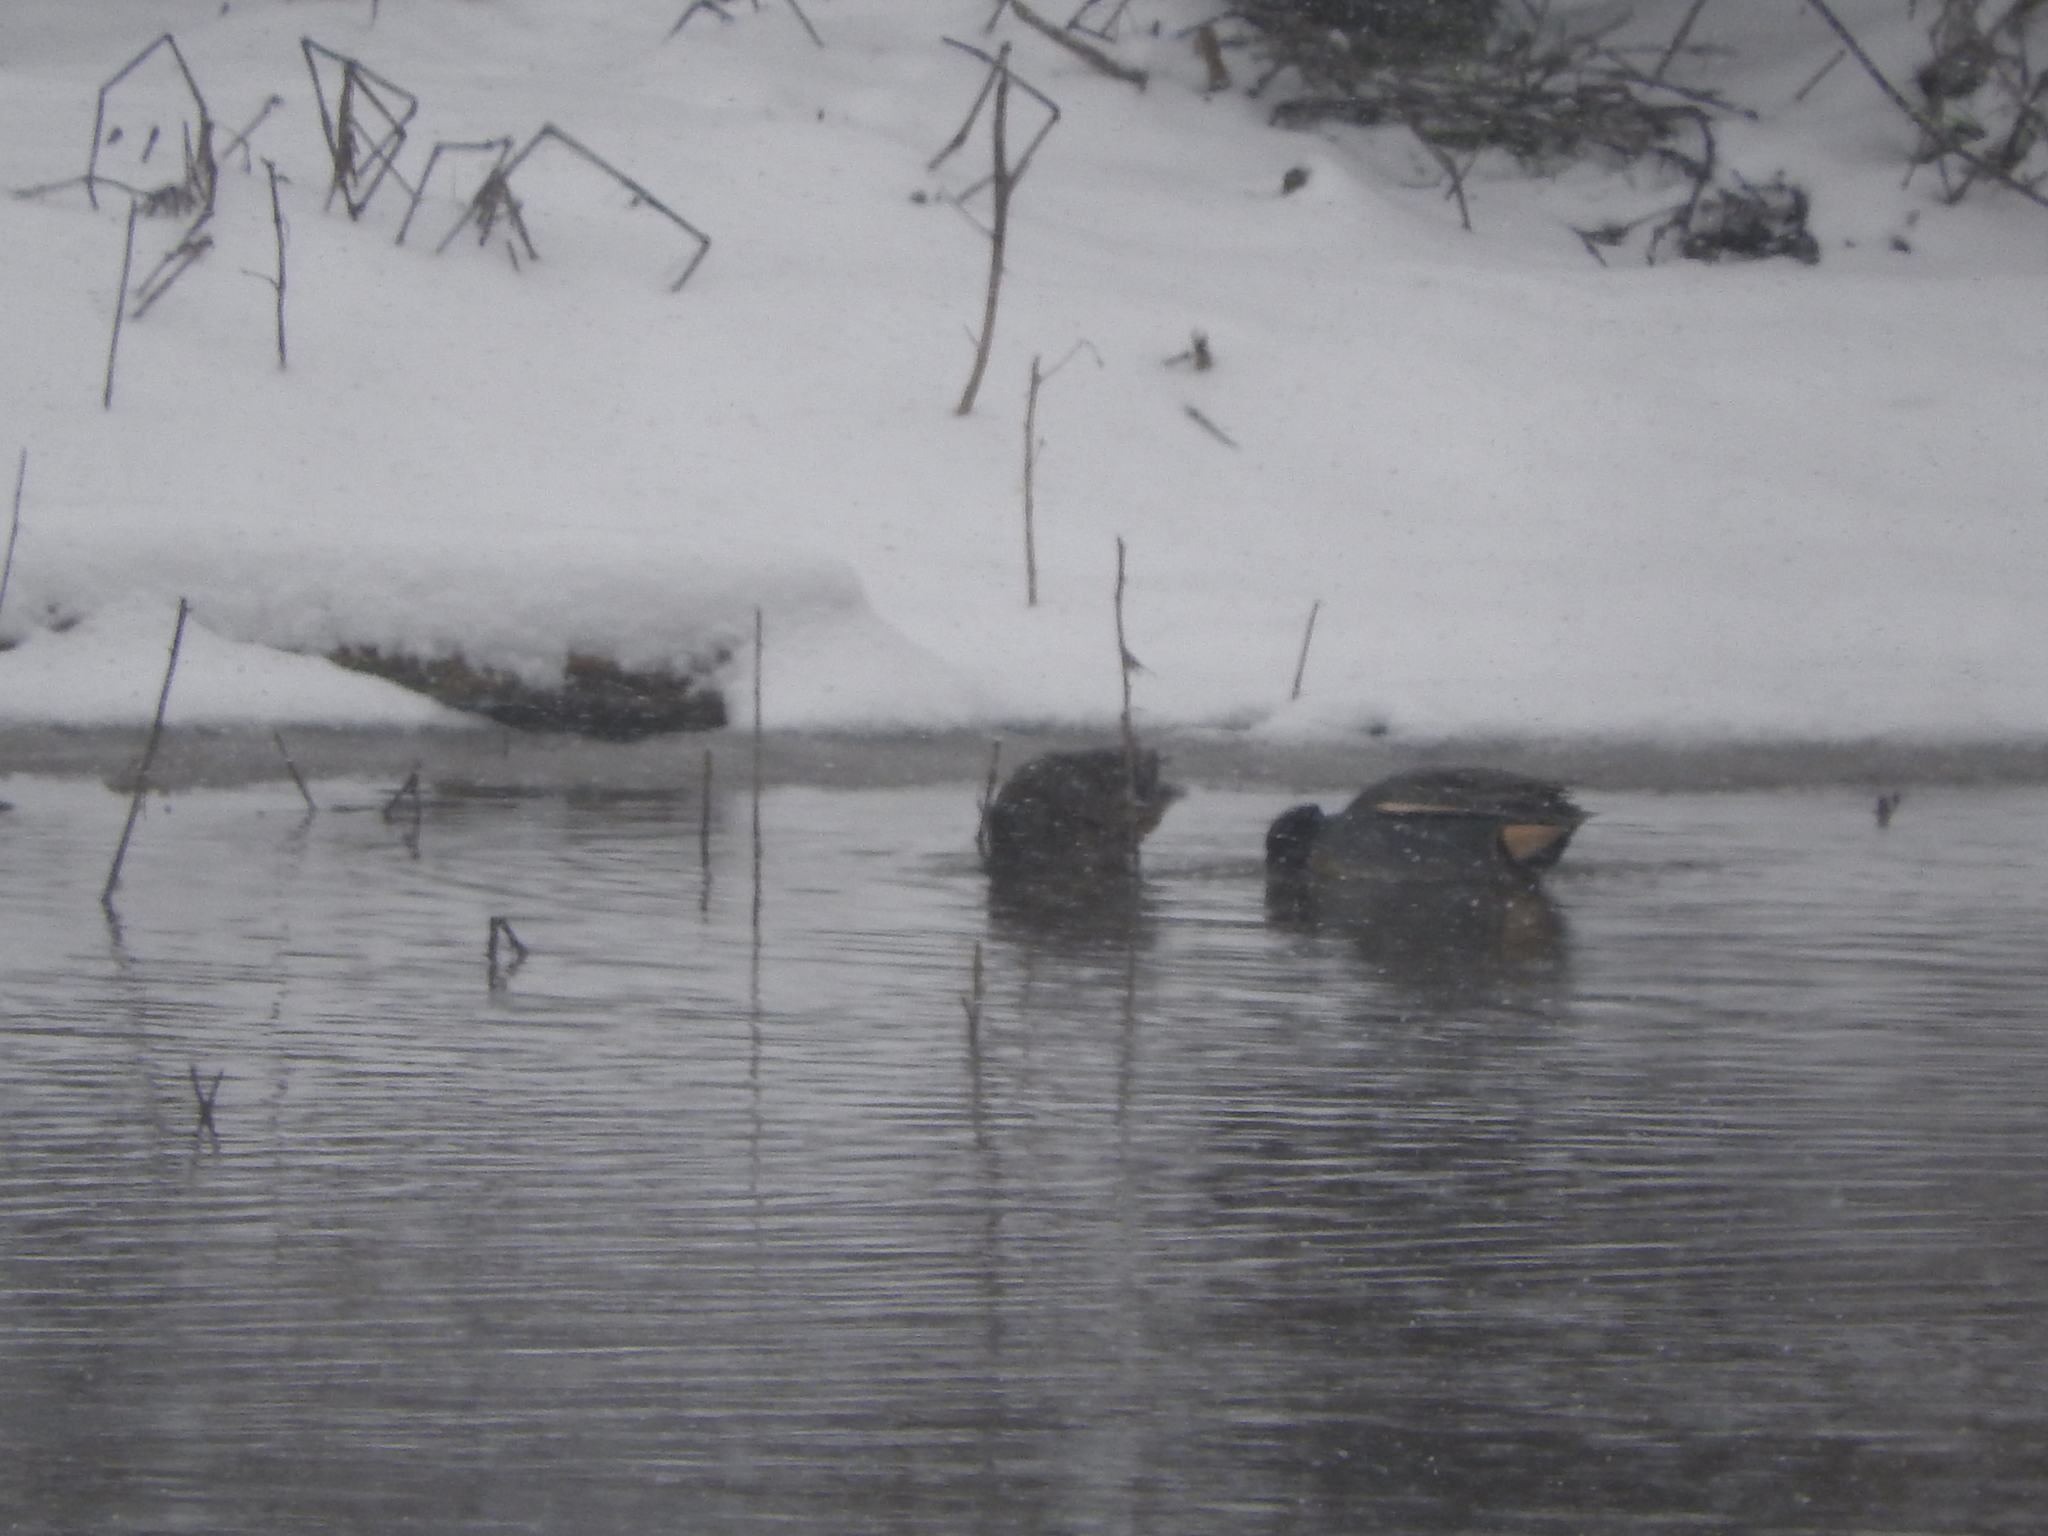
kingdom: Animalia
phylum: Chordata
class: Aves
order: Anseriformes
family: Anatidae
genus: Anas
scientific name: Anas crecca
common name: Eurasian teal
